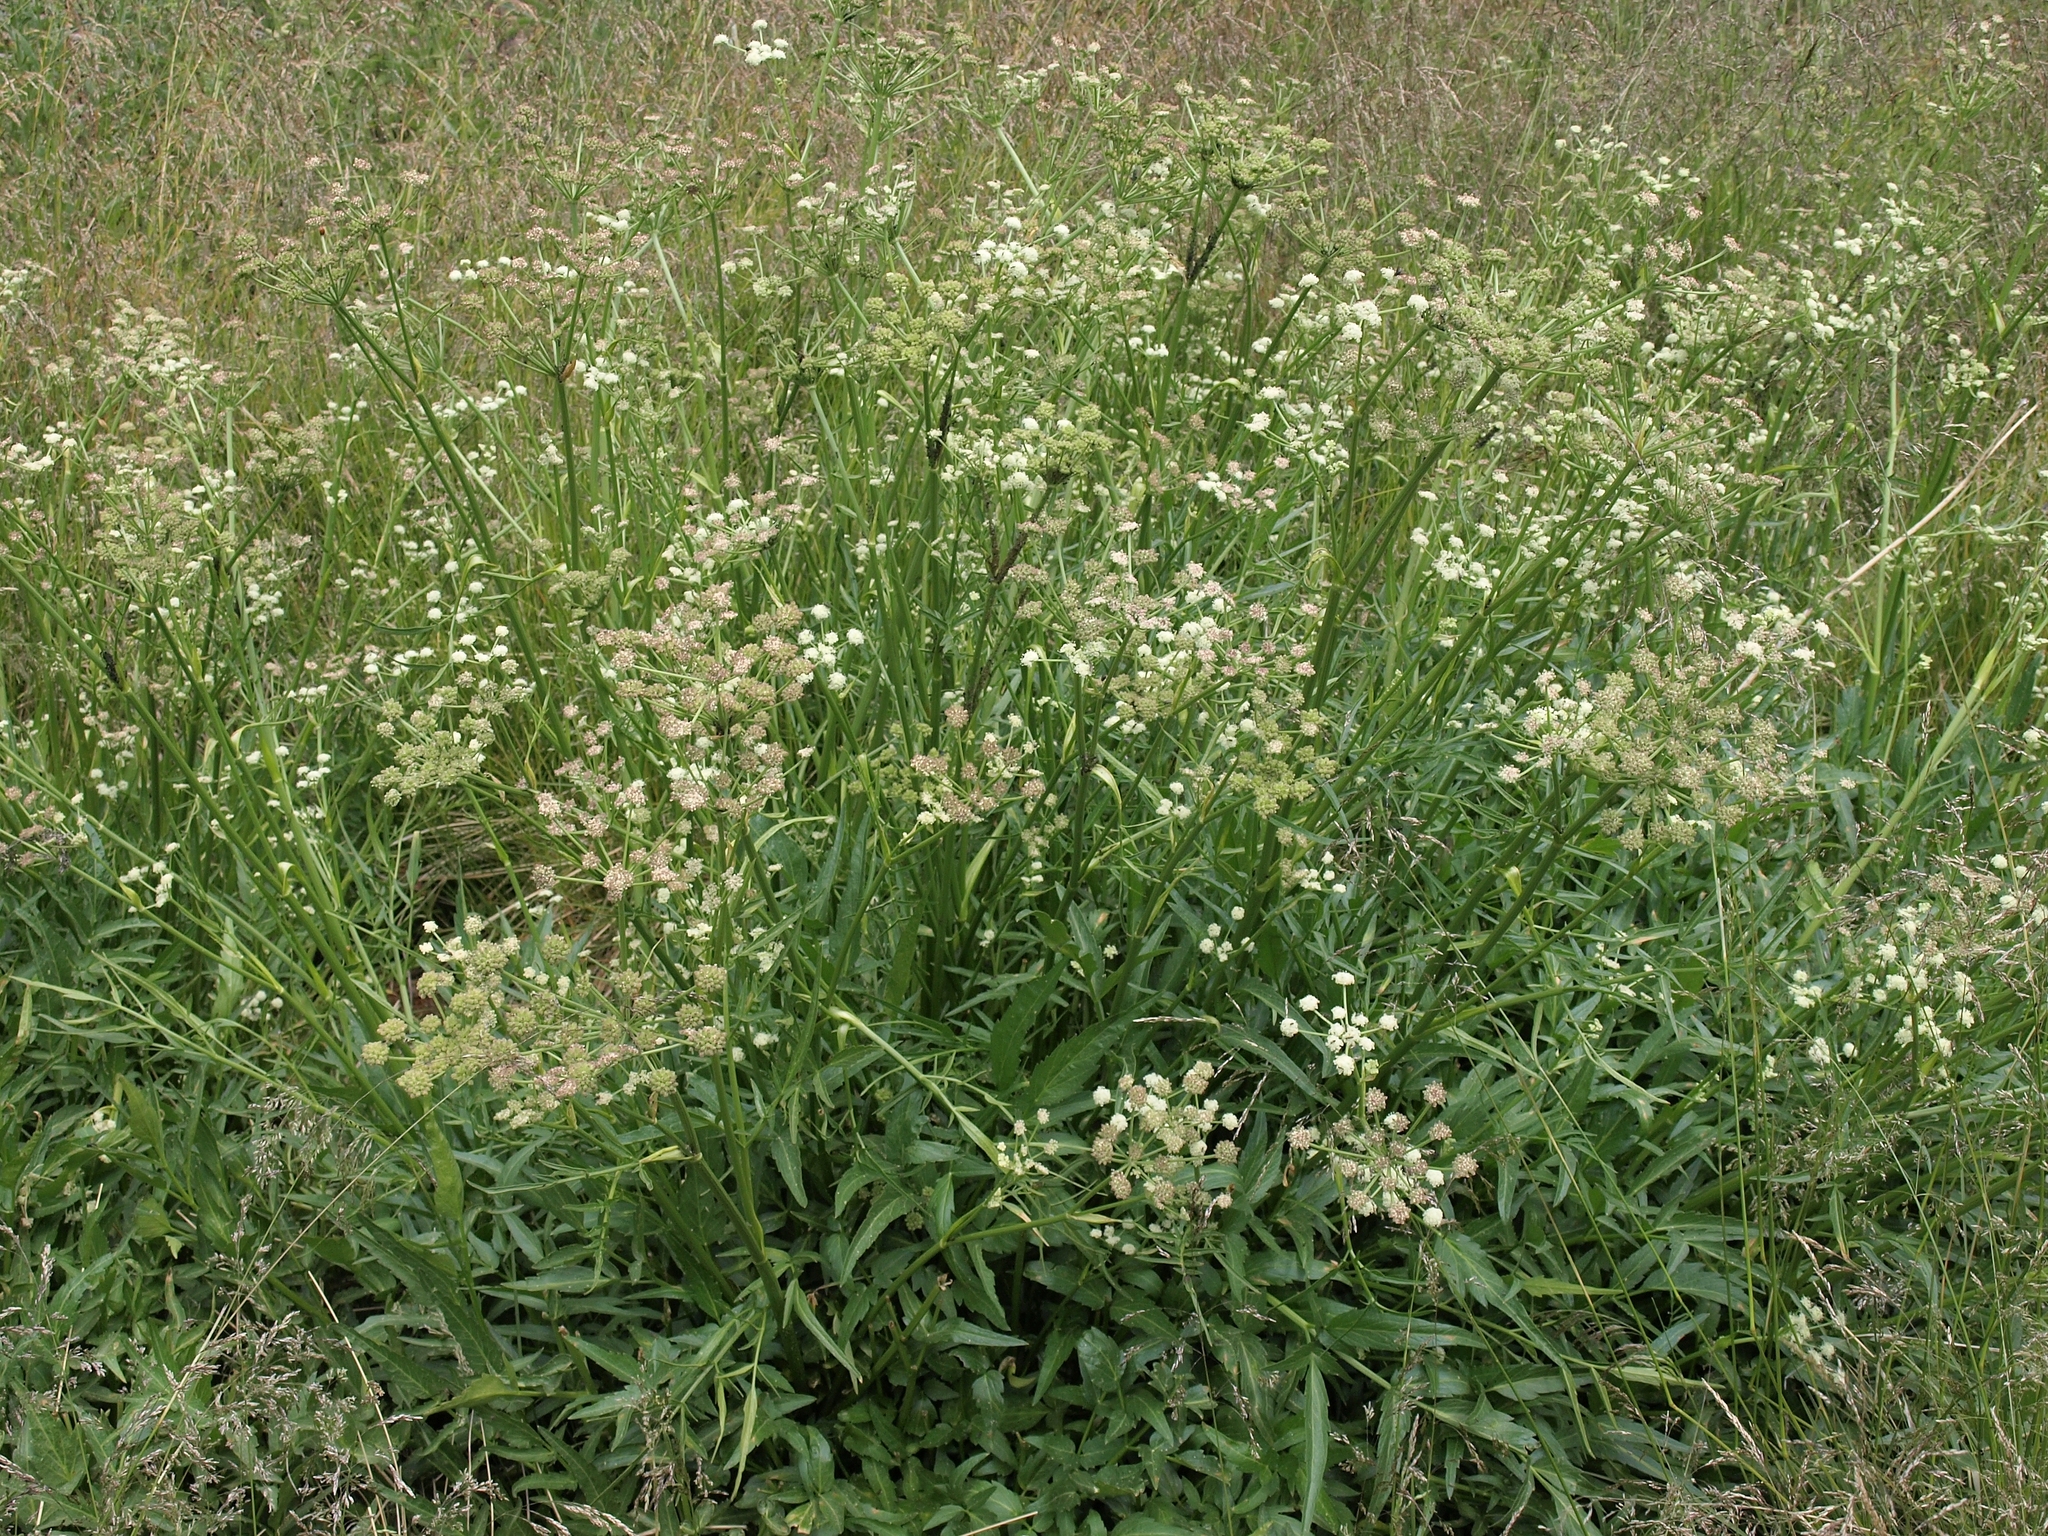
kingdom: Plantae
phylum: Tracheophyta
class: Magnoliopsida
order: Apiales
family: Apiaceae
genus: Angelica
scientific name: Angelica kingii
